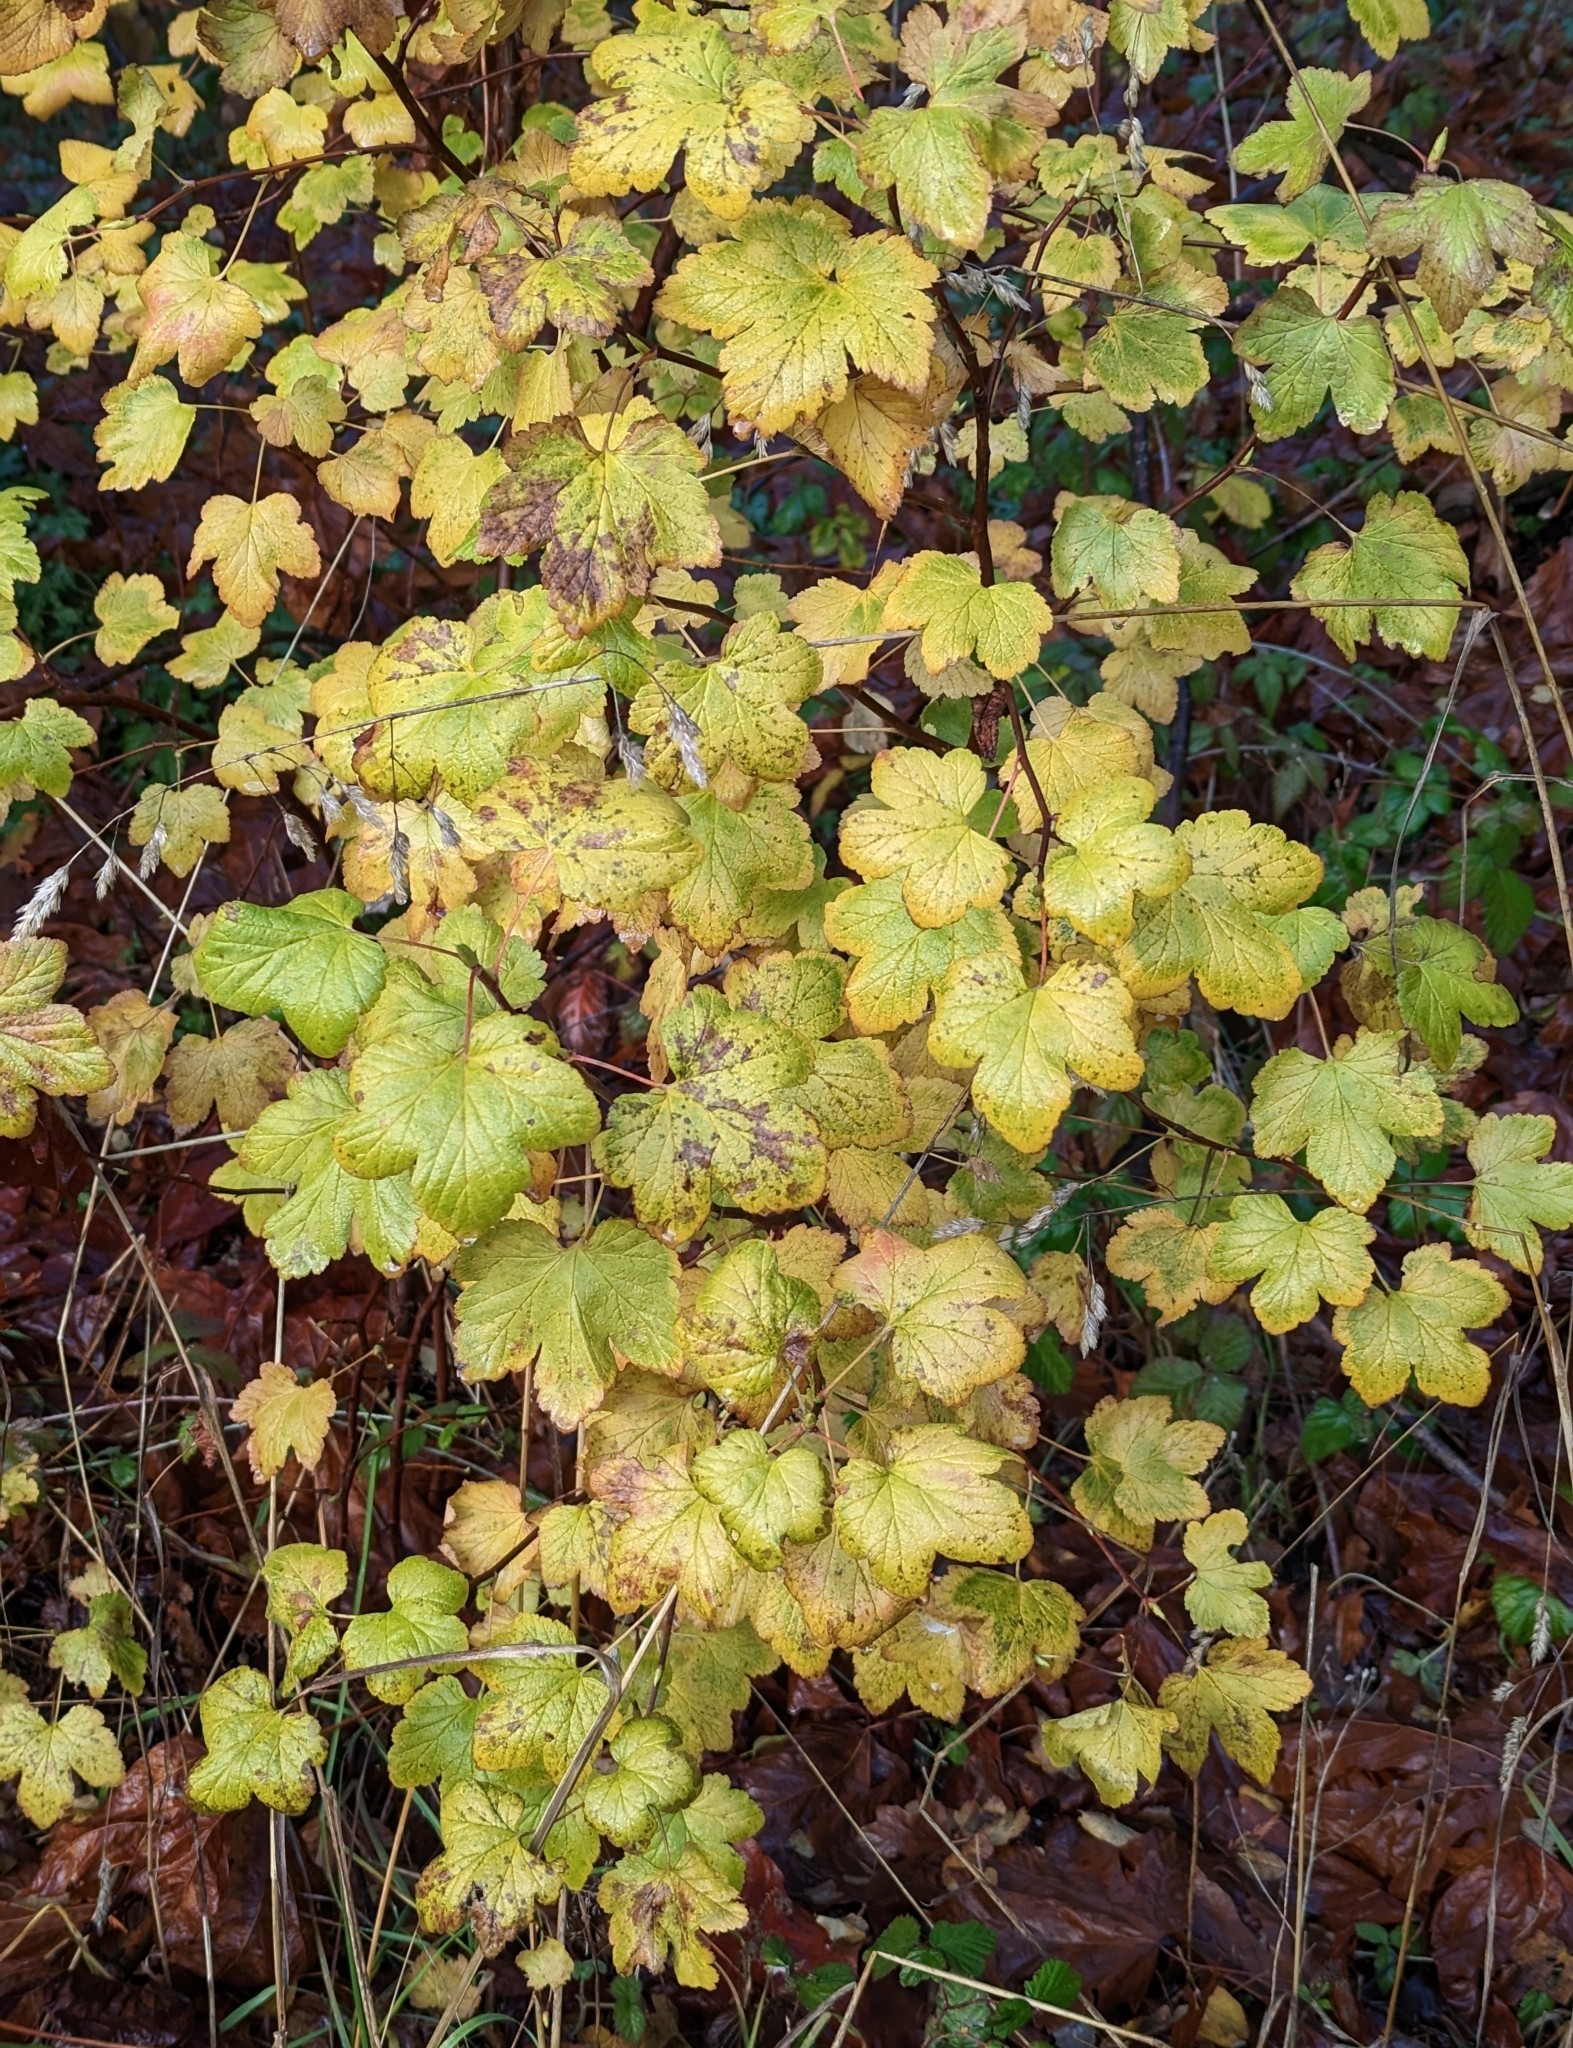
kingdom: Plantae
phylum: Tracheophyta
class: Magnoliopsida
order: Saxifragales
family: Grossulariaceae
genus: Ribes
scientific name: Ribes sanguineum
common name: Flowering currant
